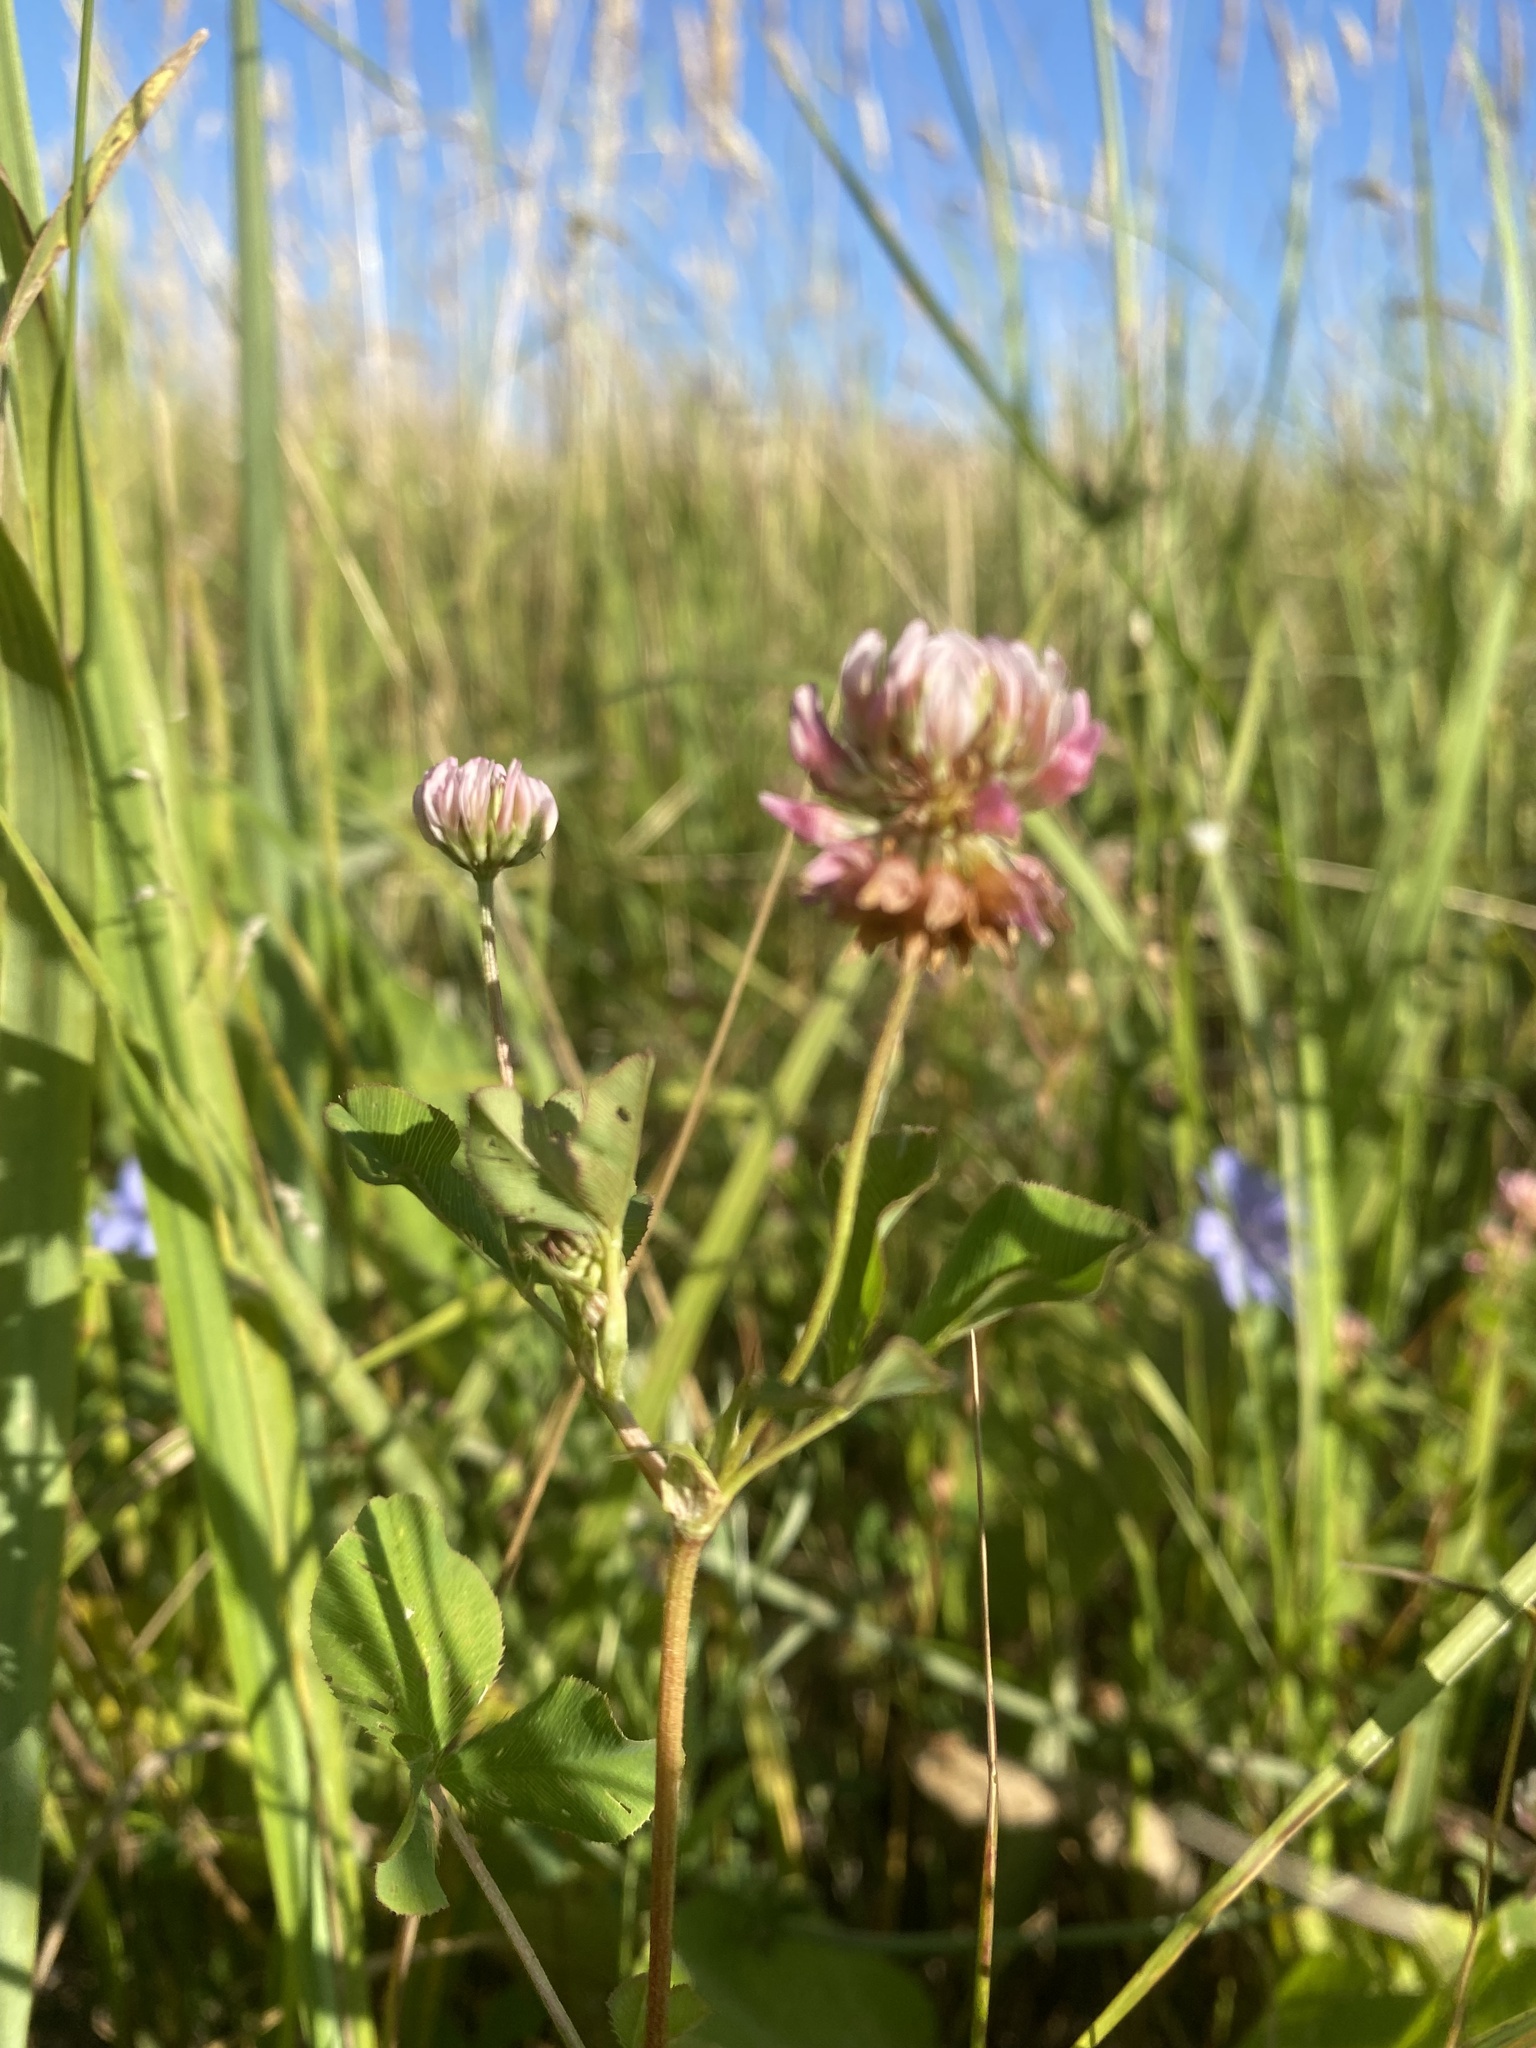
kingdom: Plantae
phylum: Tracheophyta
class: Magnoliopsida
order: Fabales
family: Fabaceae
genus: Trifolium
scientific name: Trifolium hybridum
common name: Alsike clover
